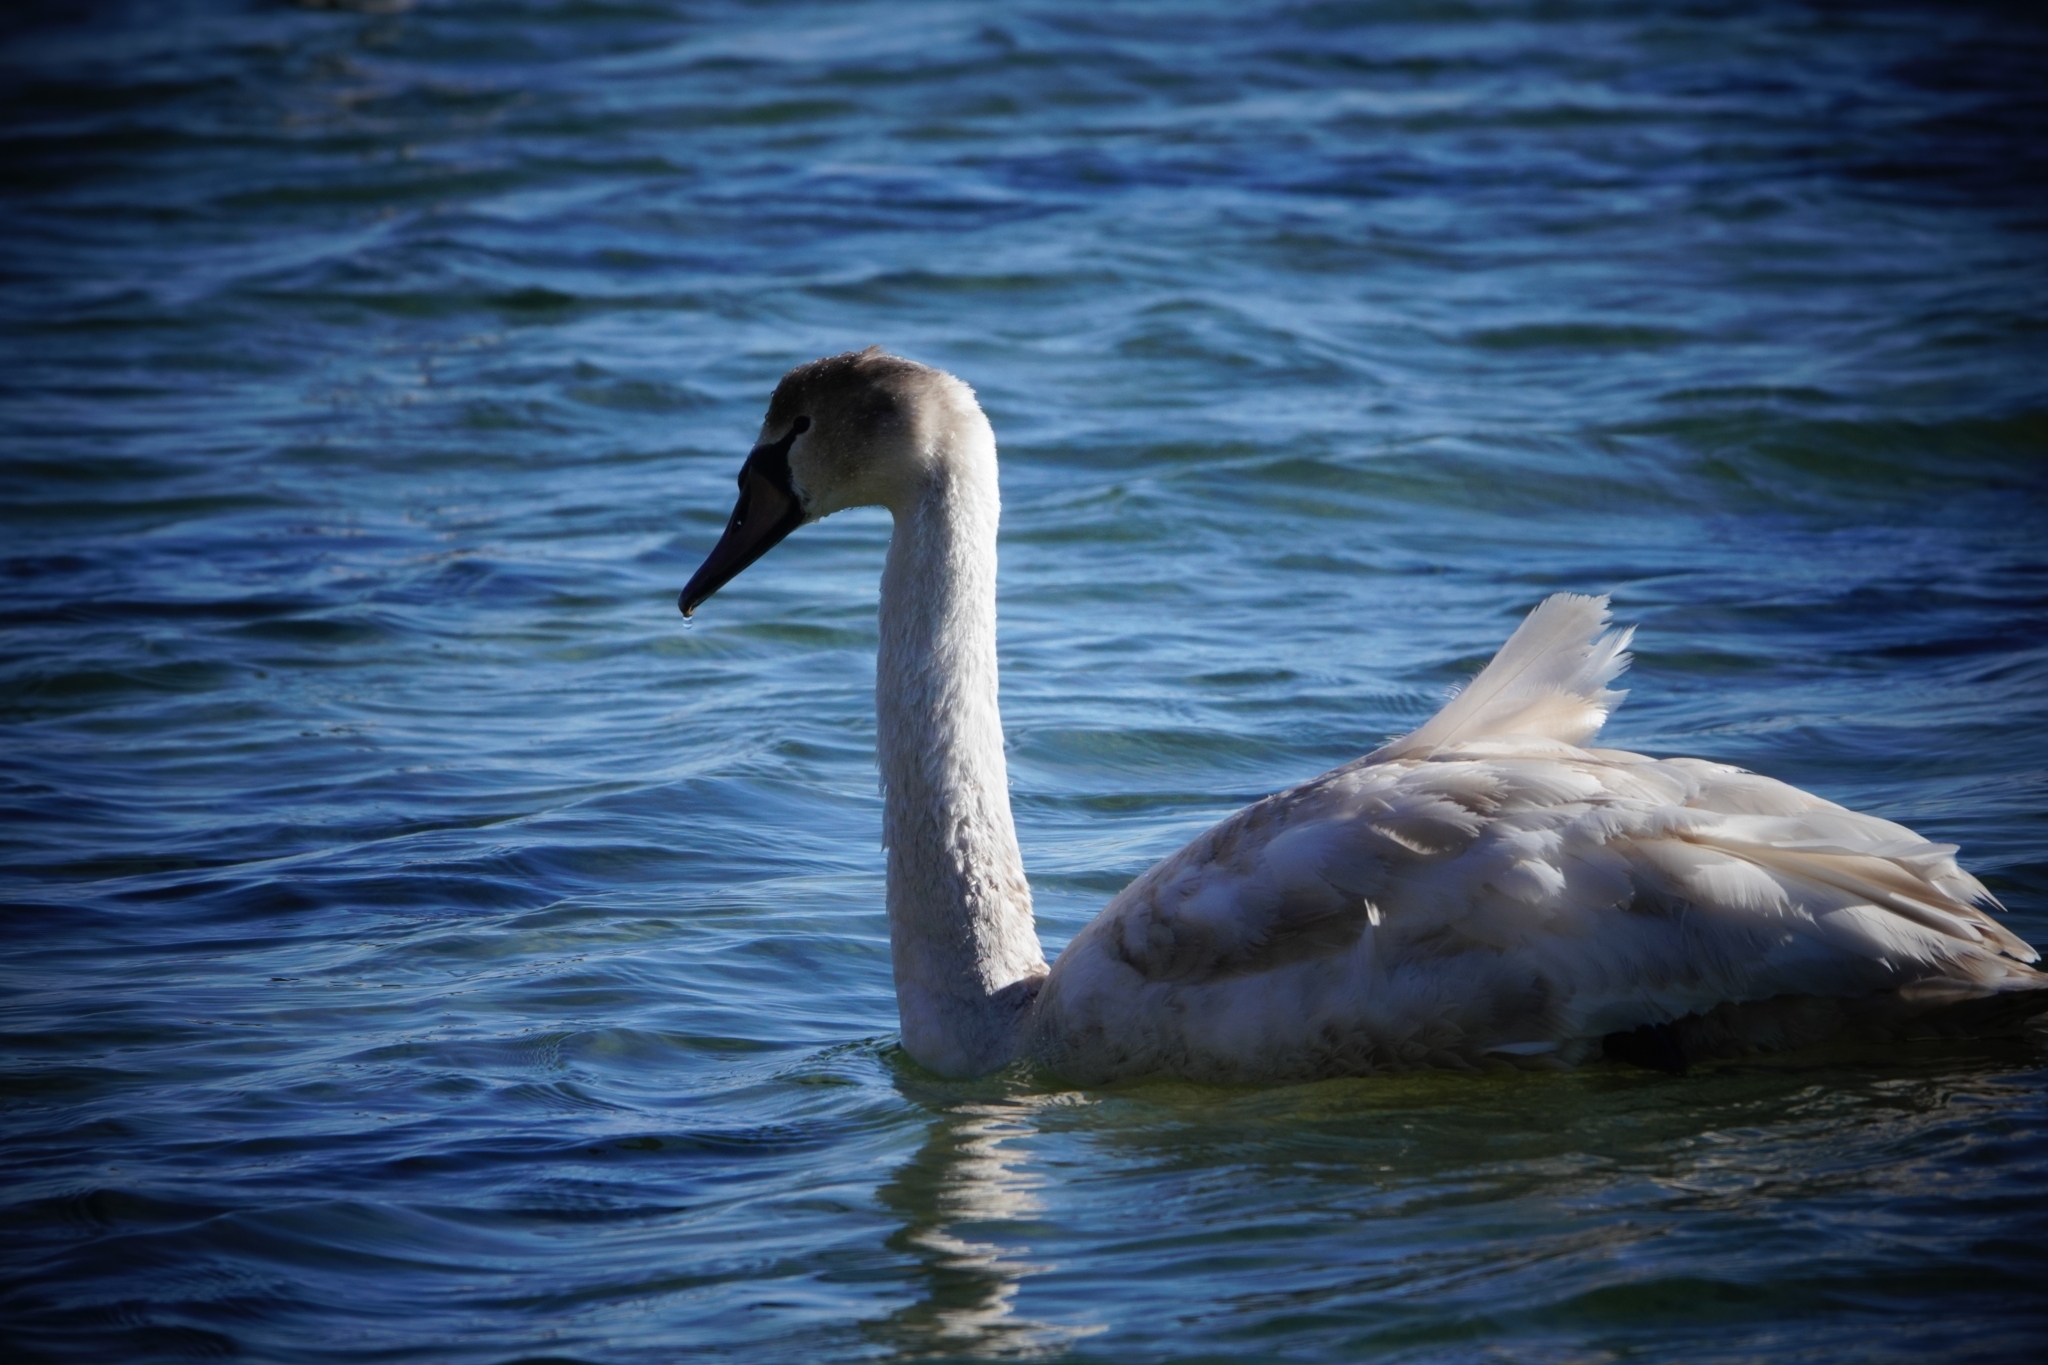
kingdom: Animalia
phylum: Chordata
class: Aves
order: Anseriformes
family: Anatidae
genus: Cygnus
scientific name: Cygnus olor
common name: Mute swan
